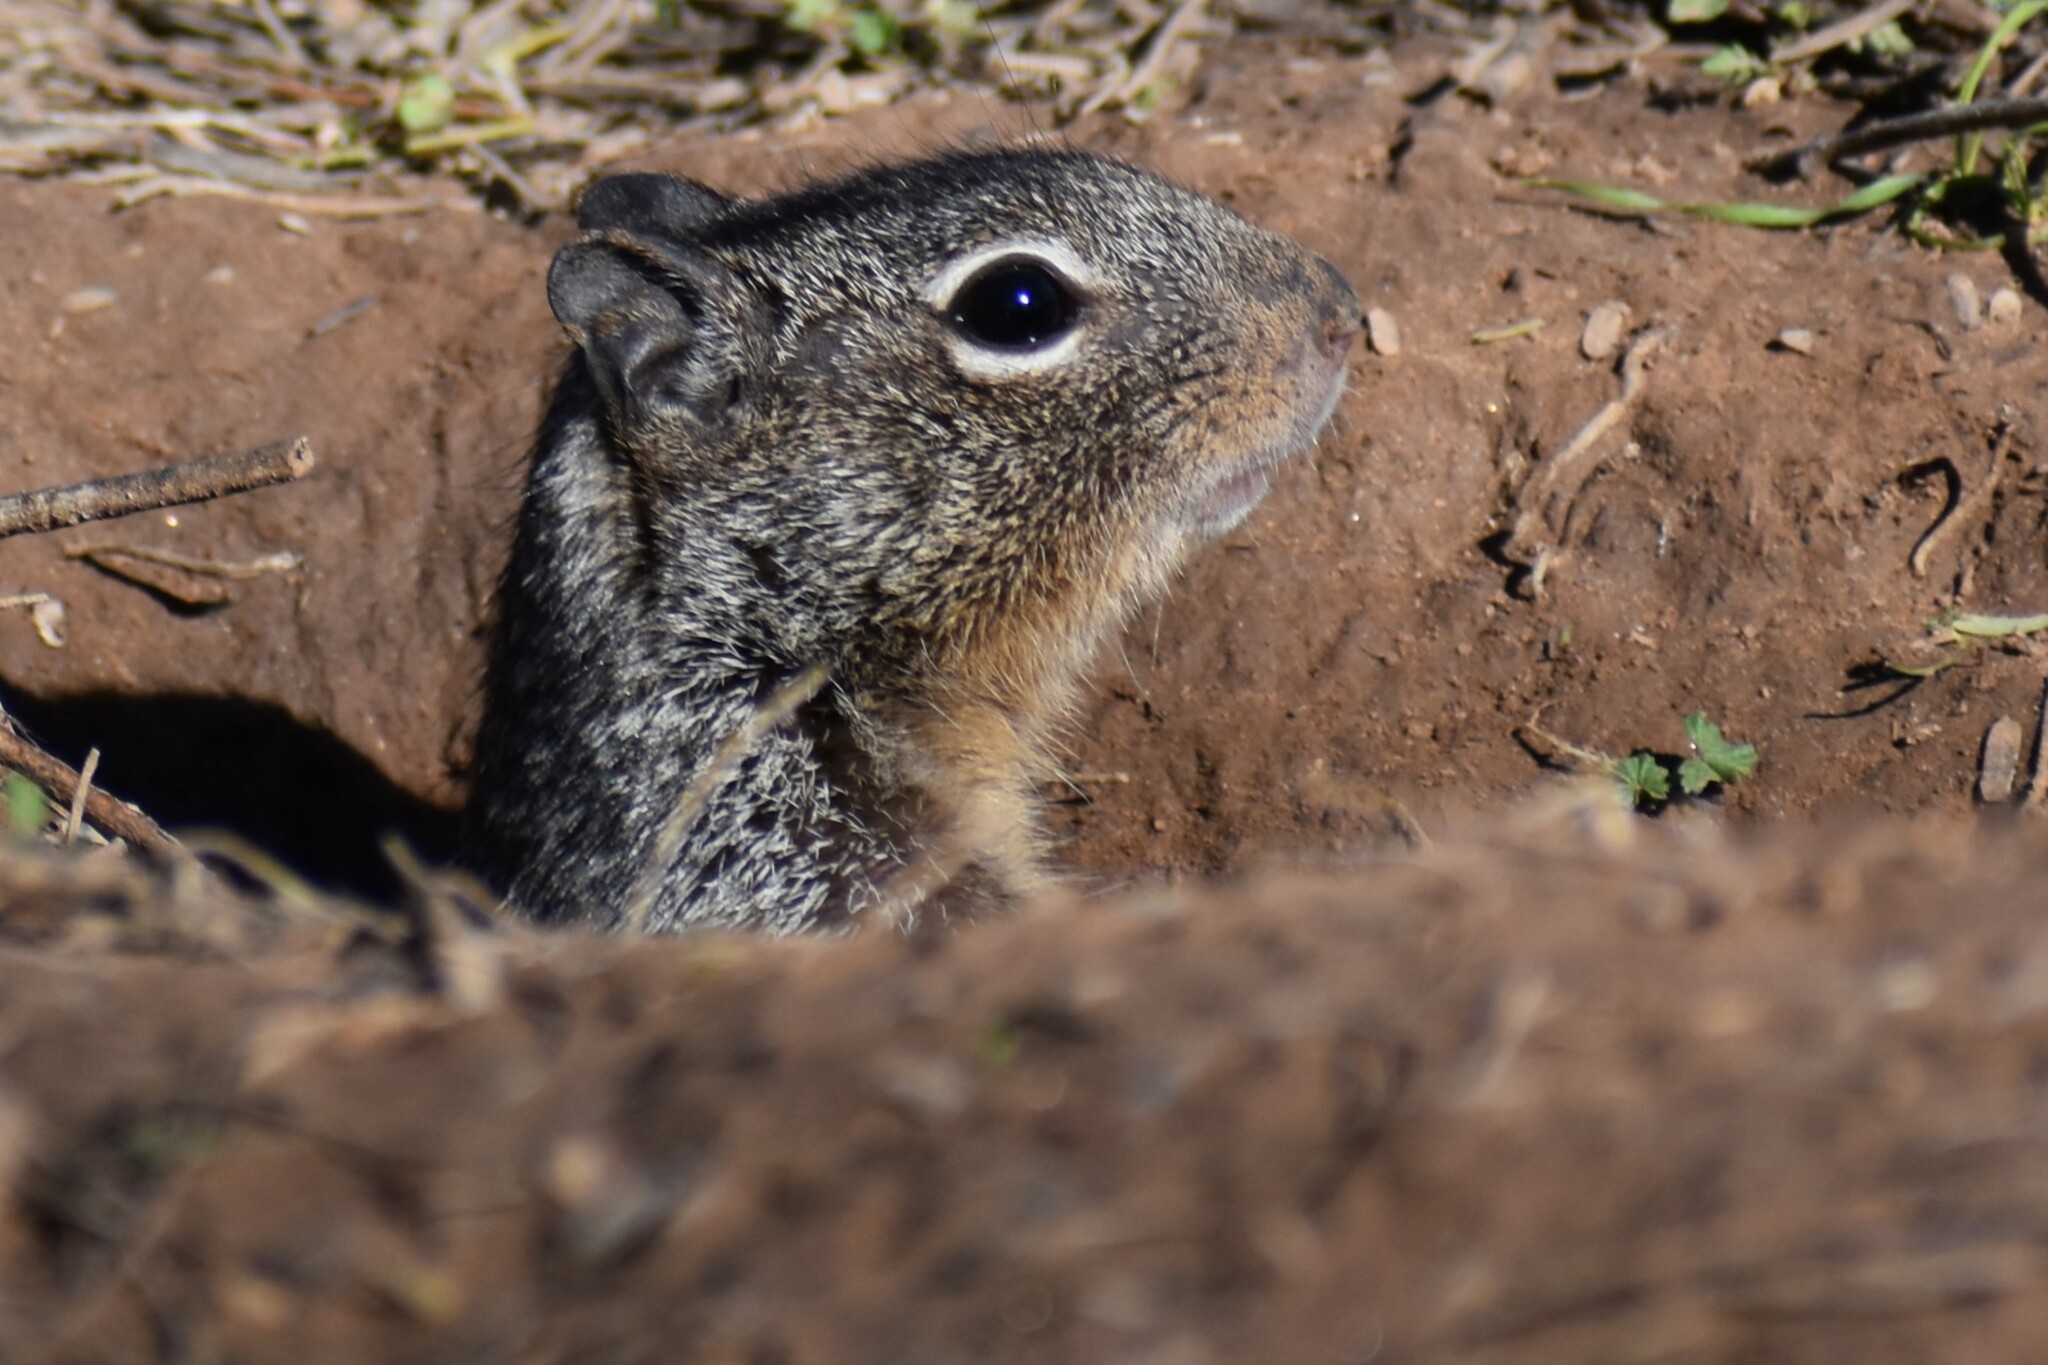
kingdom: Animalia
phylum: Chordata
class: Mammalia
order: Rodentia
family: Sciuridae
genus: Otospermophilus
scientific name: Otospermophilus variegatus
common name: Rock squirrel
